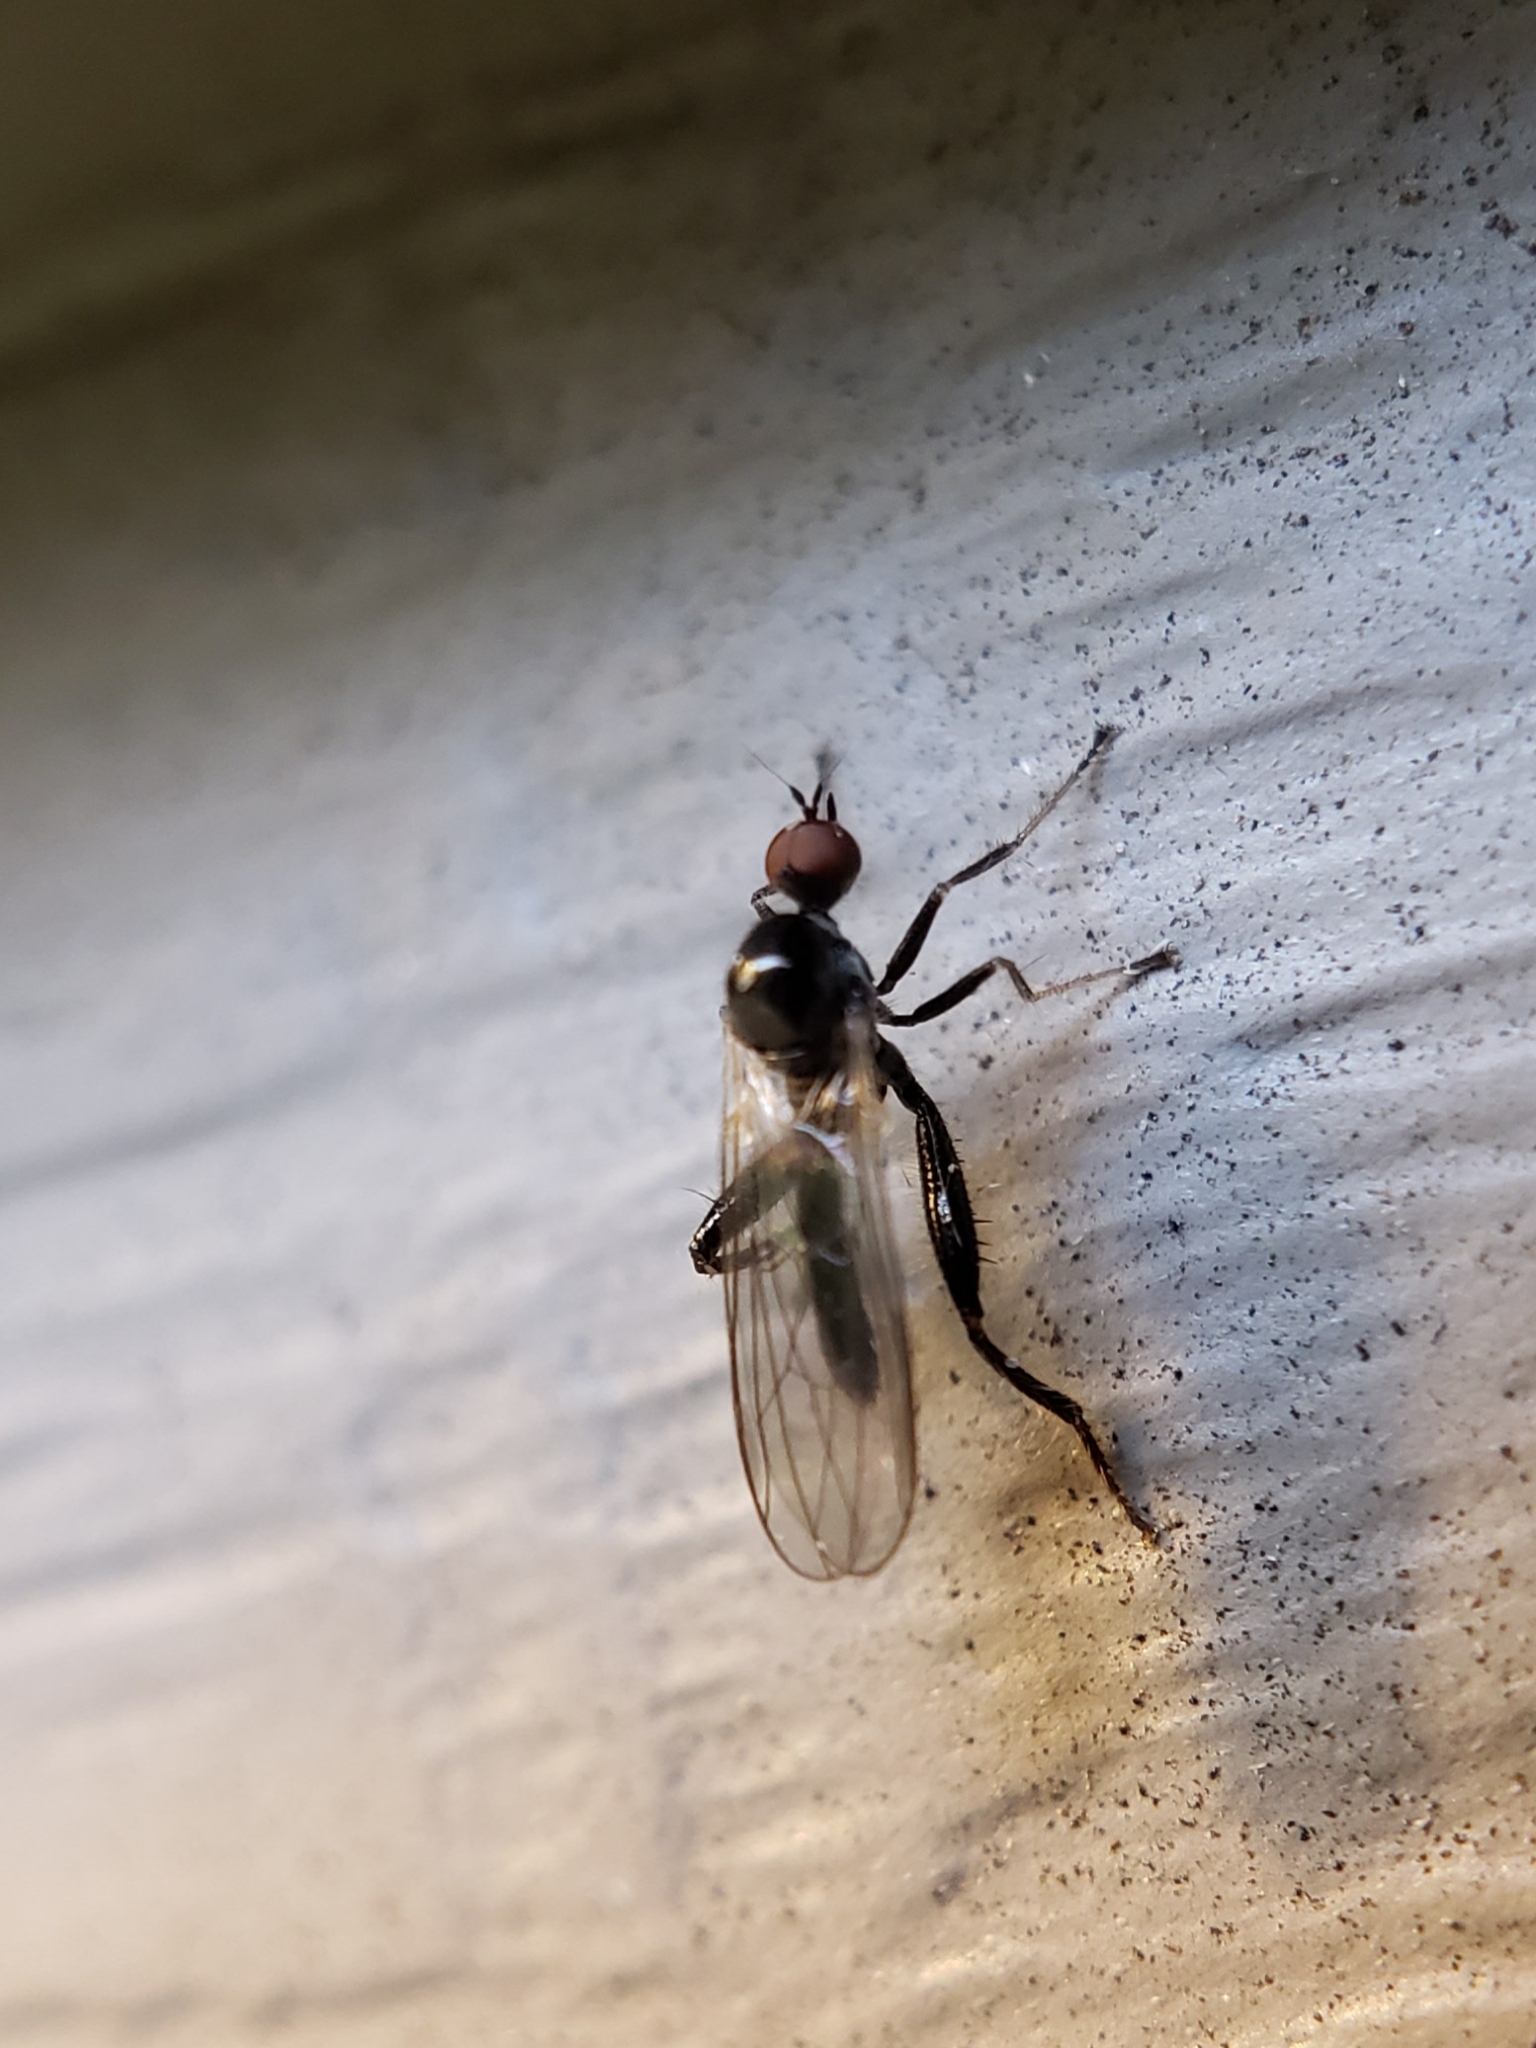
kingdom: Animalia
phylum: Arthropoda
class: Insecta
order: Diptera
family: Hybotidae
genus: Hybos
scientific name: Hybos reversus
